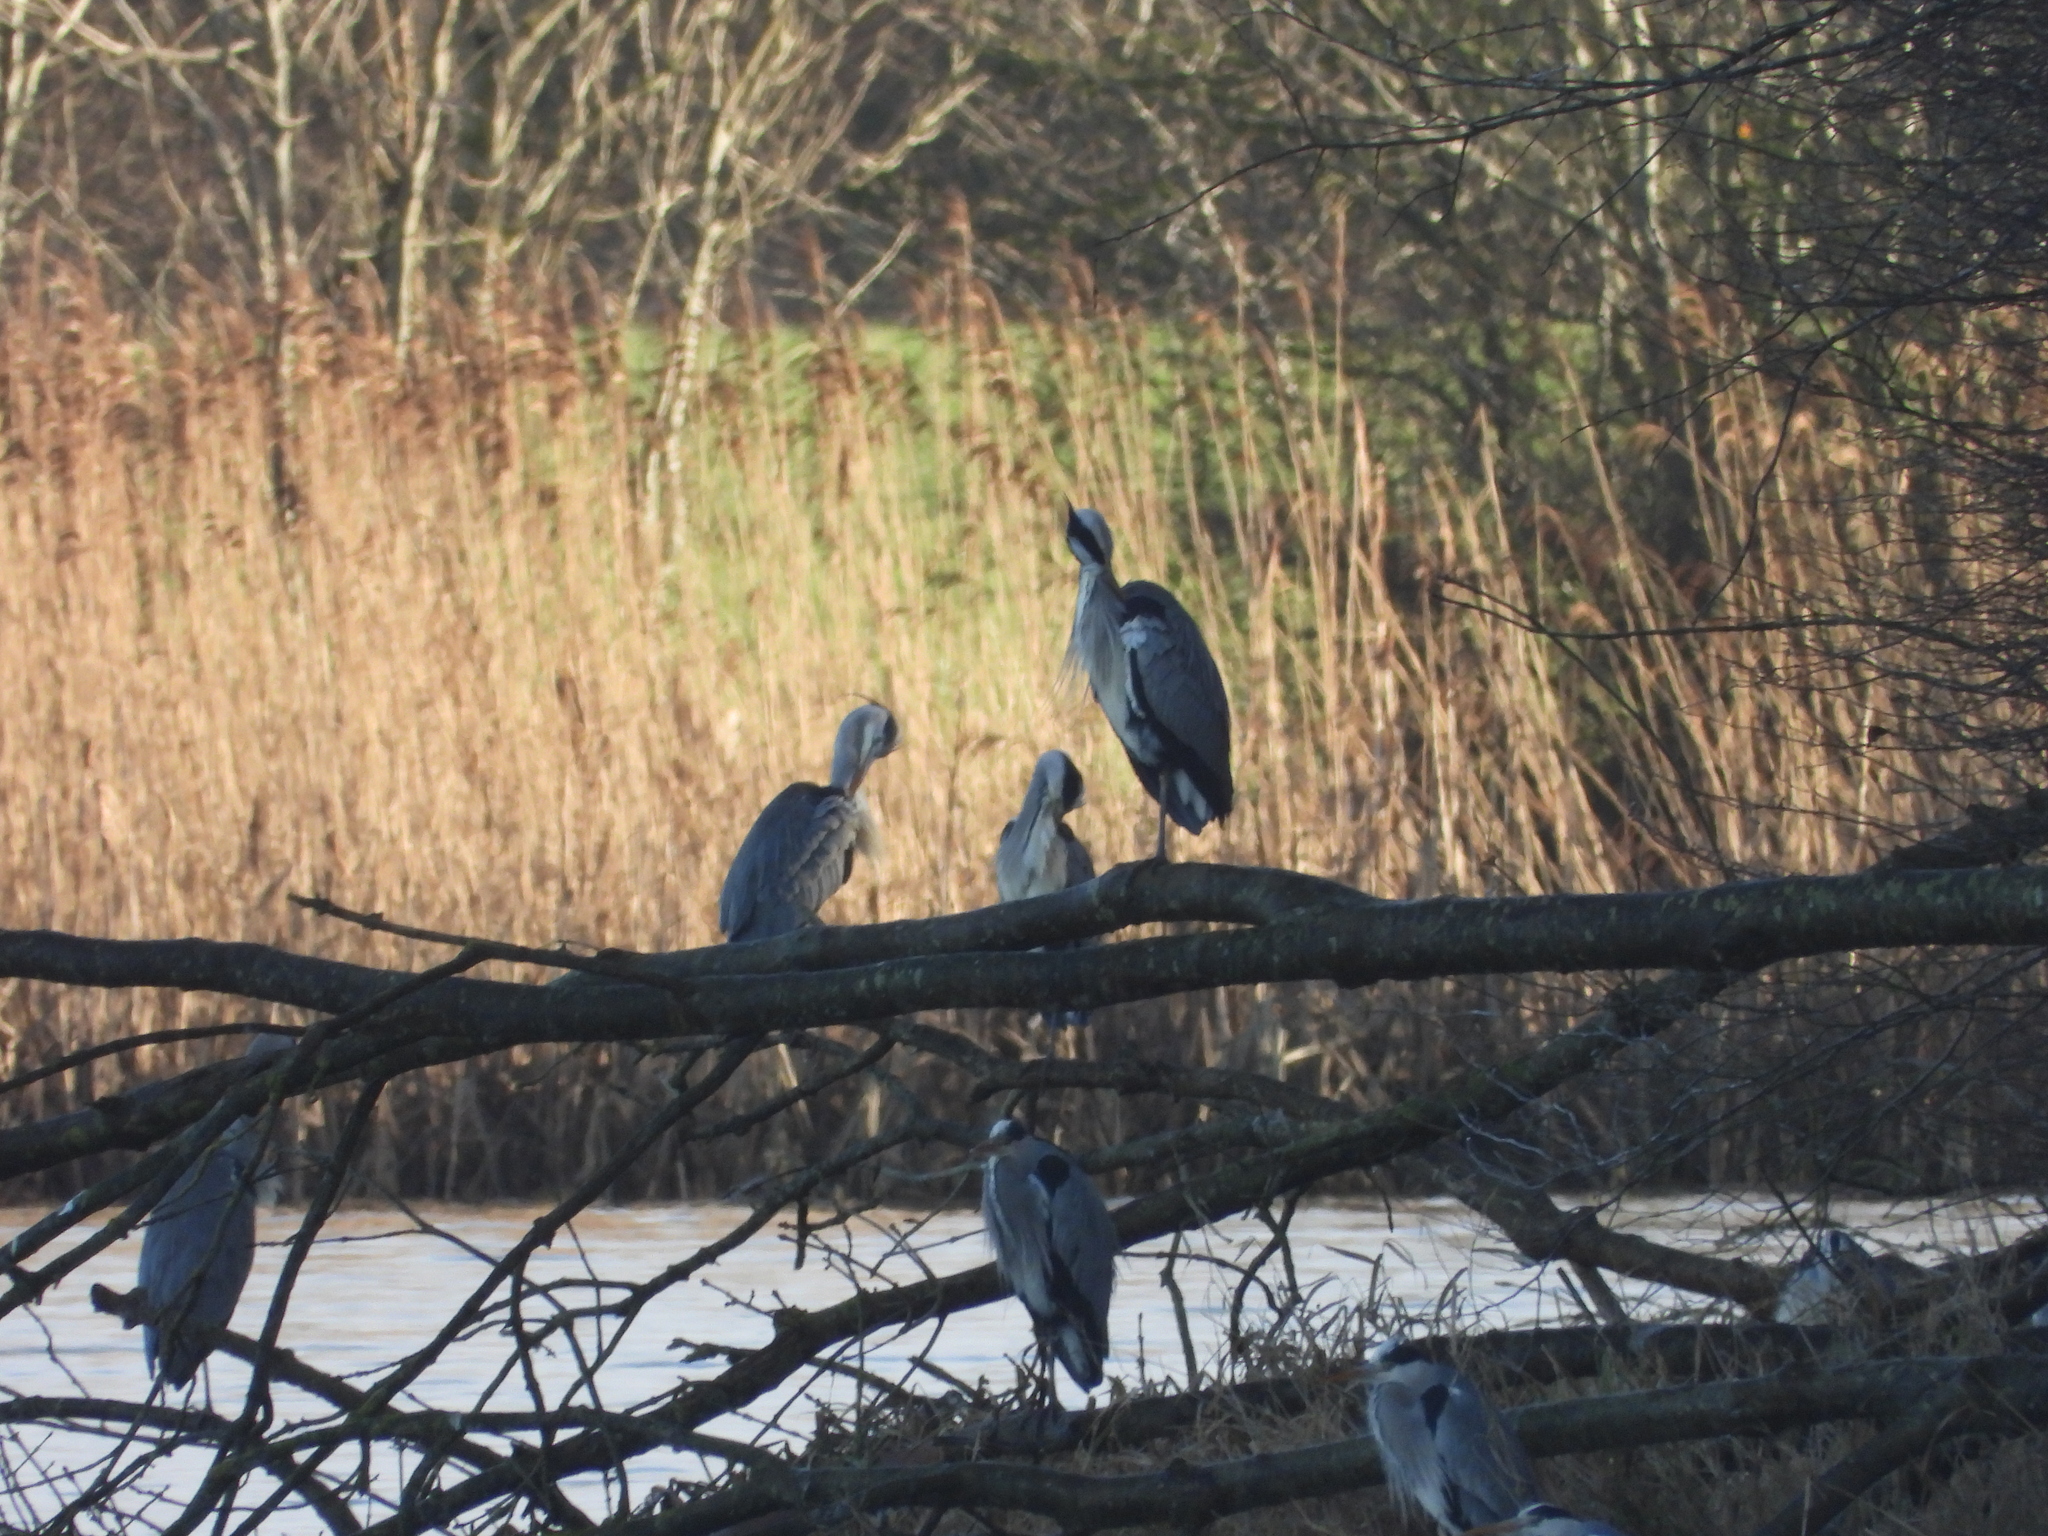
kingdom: Animalia
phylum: Chordata
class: Aves
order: Pelecaniformes
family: Ardeidae
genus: Ardea
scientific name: Ardea cinerea
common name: Grey heron
